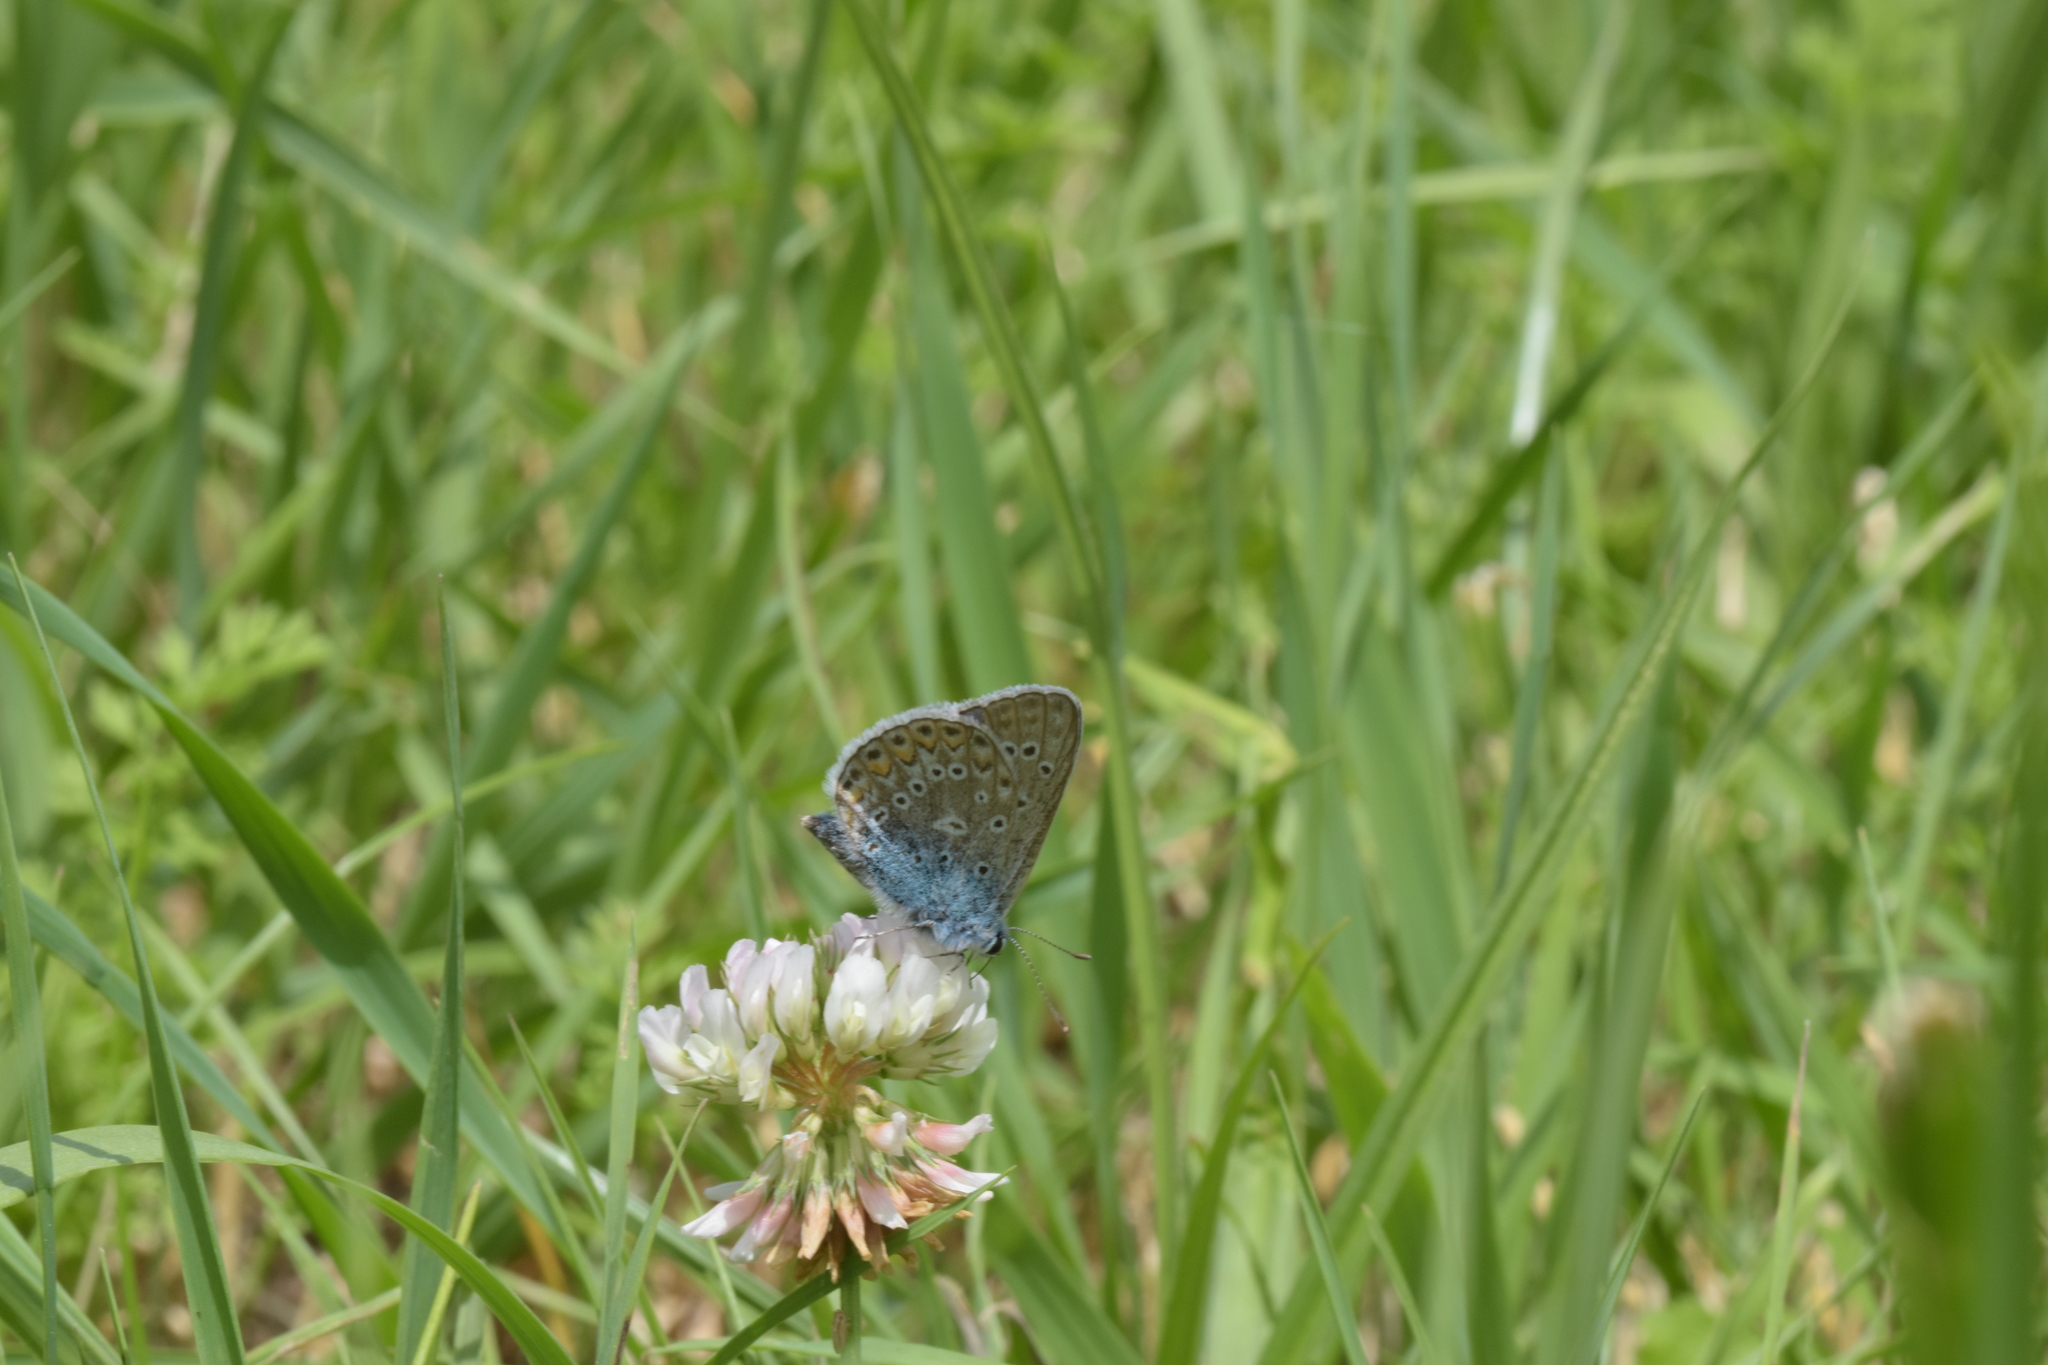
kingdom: Animalia
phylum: Arthropoda
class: Insecta
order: Lepidoptera
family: Lycaenidae
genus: Polyommatus
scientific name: Polyommatus icarus
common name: Common blue
